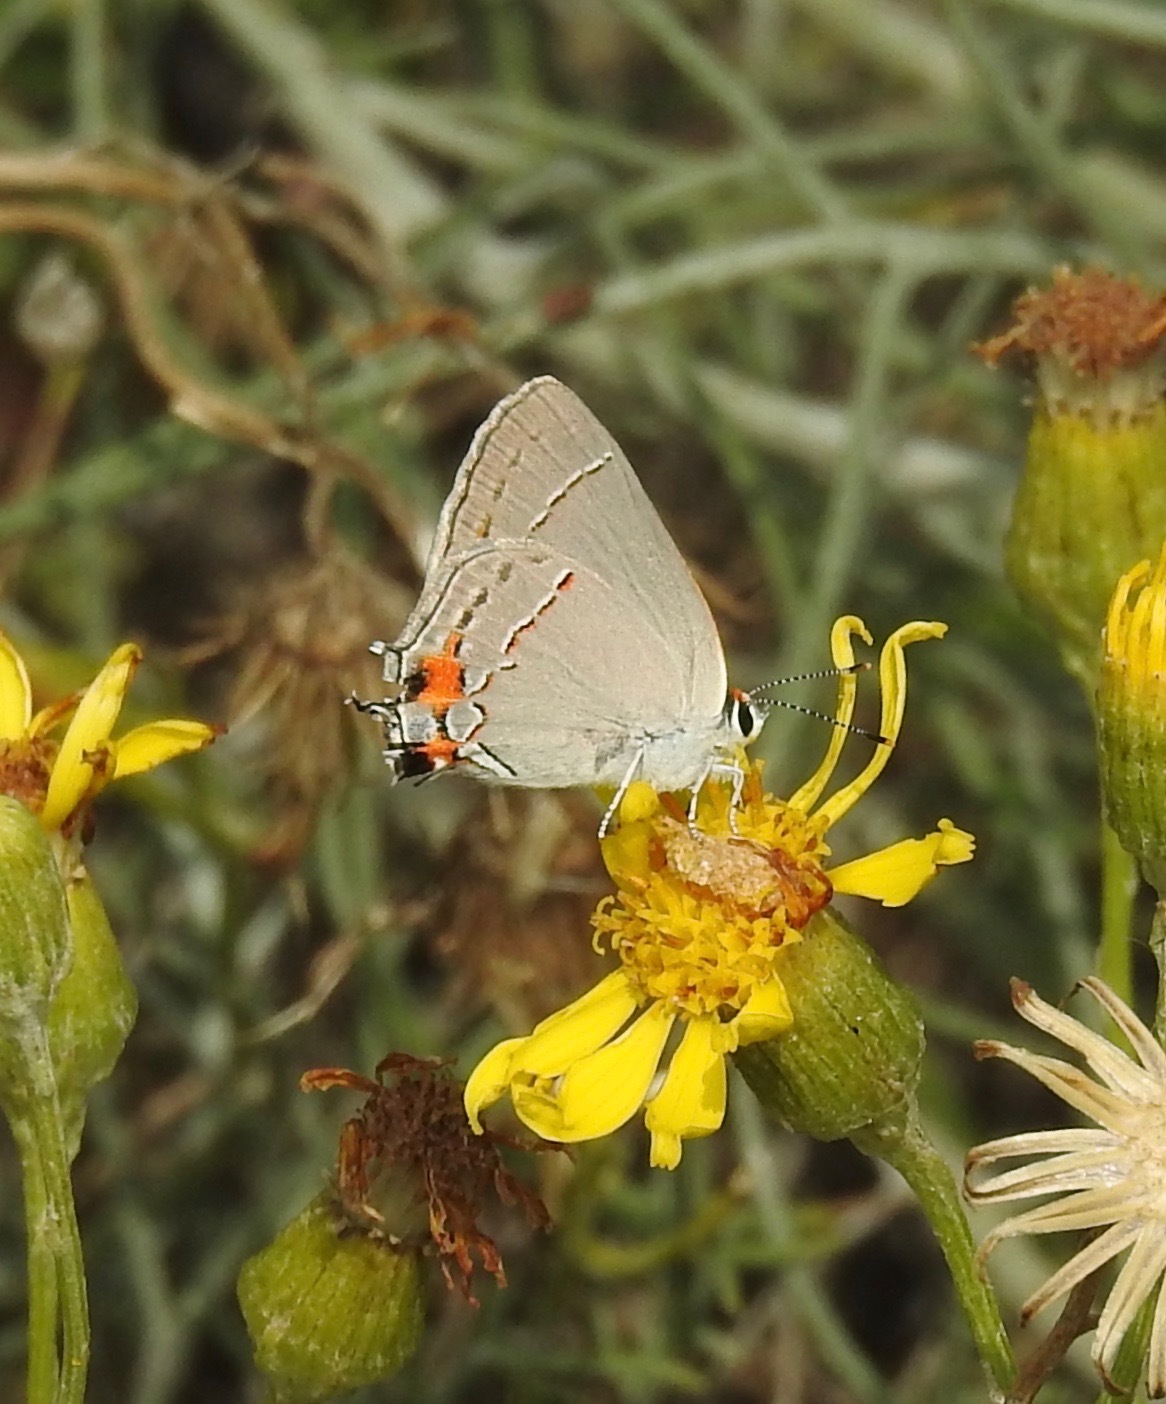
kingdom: Animalia
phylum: Arthropoda
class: Insecta
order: Lepidoptera
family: Lycaenidae
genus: Strymon
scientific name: Strymon melinus
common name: Gray hairstreak
